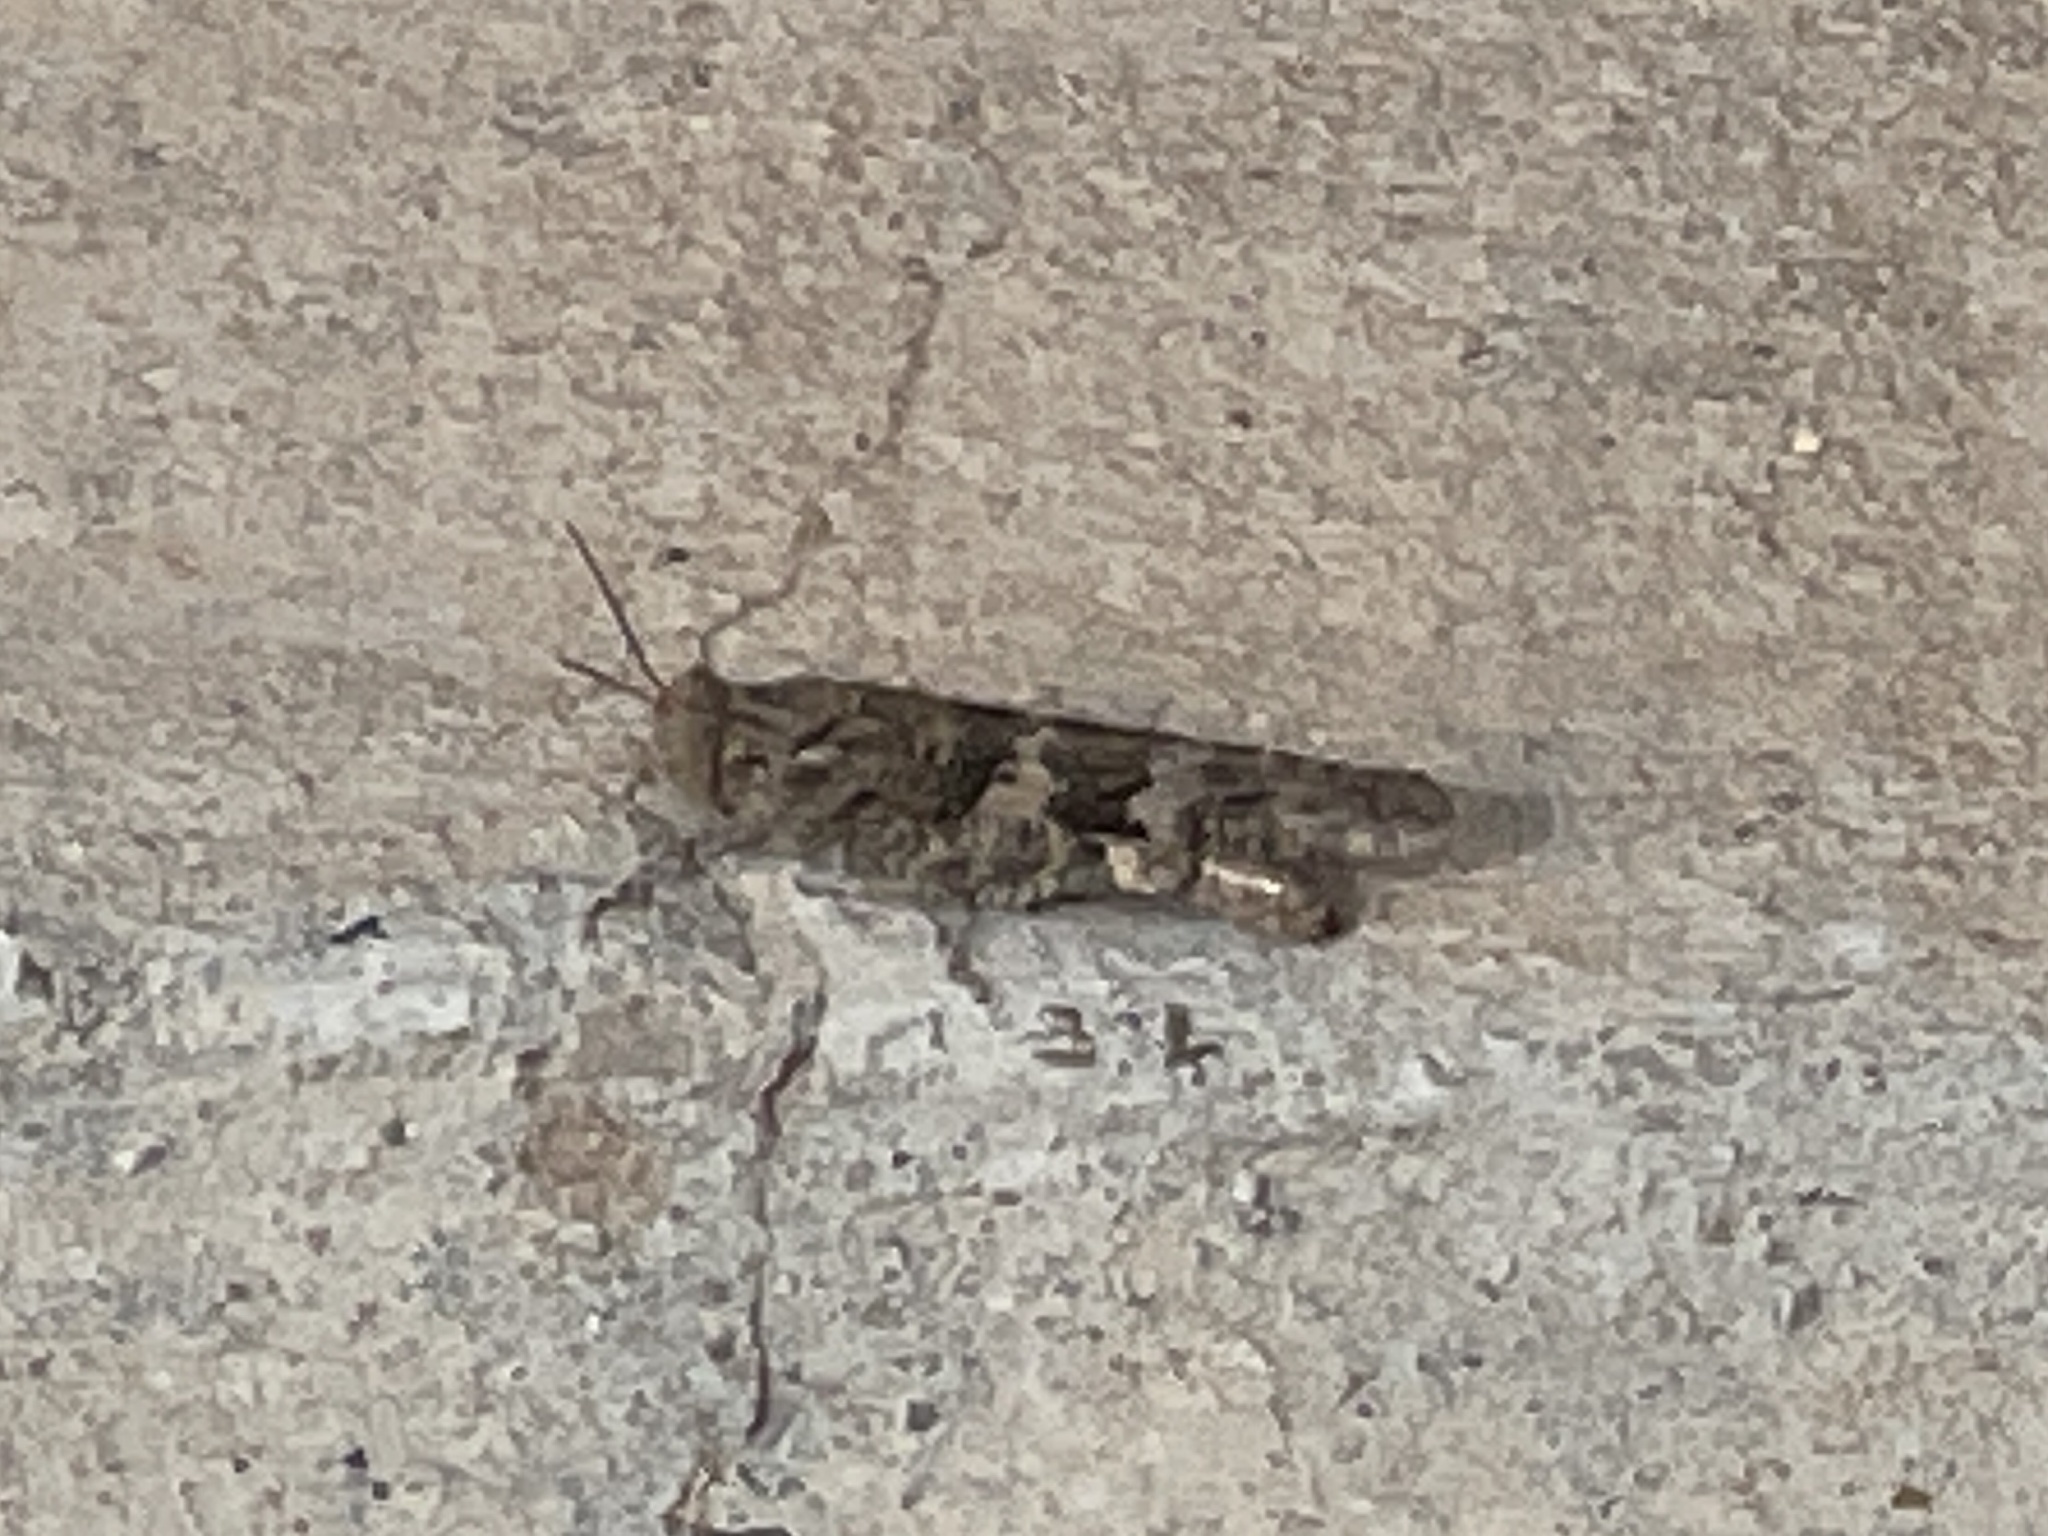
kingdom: Animalia
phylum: Arthropoda
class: Insecta
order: Orthoptera
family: Acrididae
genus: Trimerotropis
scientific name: Trimerotropis pallidipennis
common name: Pallid-winged grasshopper
